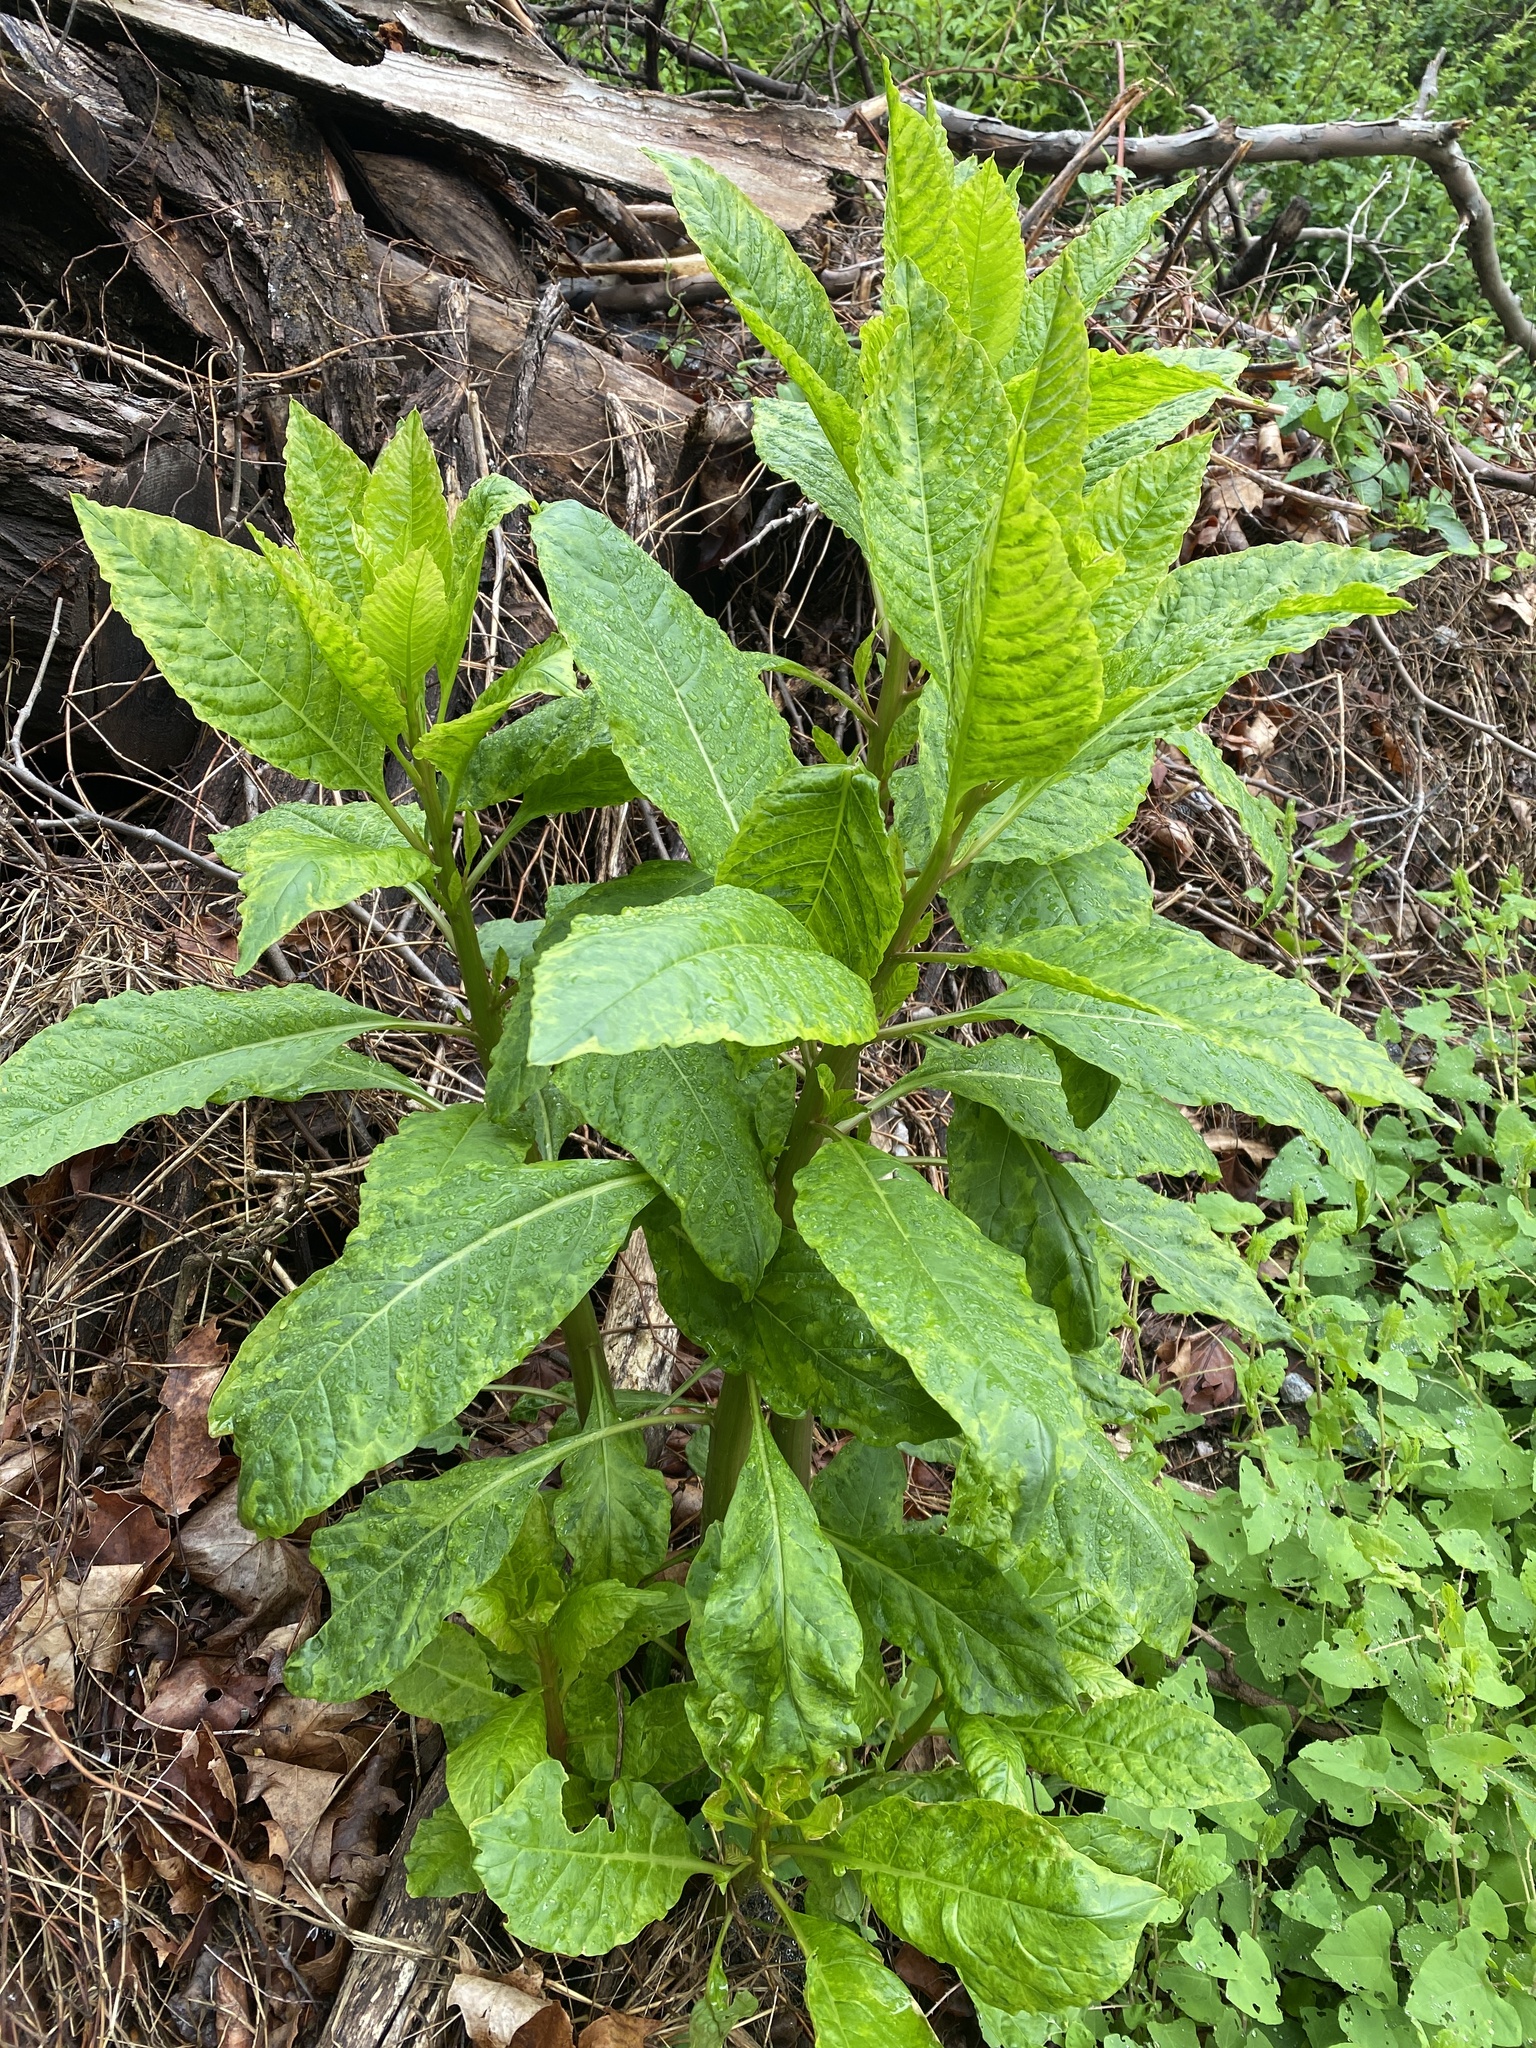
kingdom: Plantae
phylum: Tracheophyta
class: Magnoliopsida
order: Caryophyllales
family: Phytolaccaceae
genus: Phytolacca
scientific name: Phytolacca americana
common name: American pokeweed
